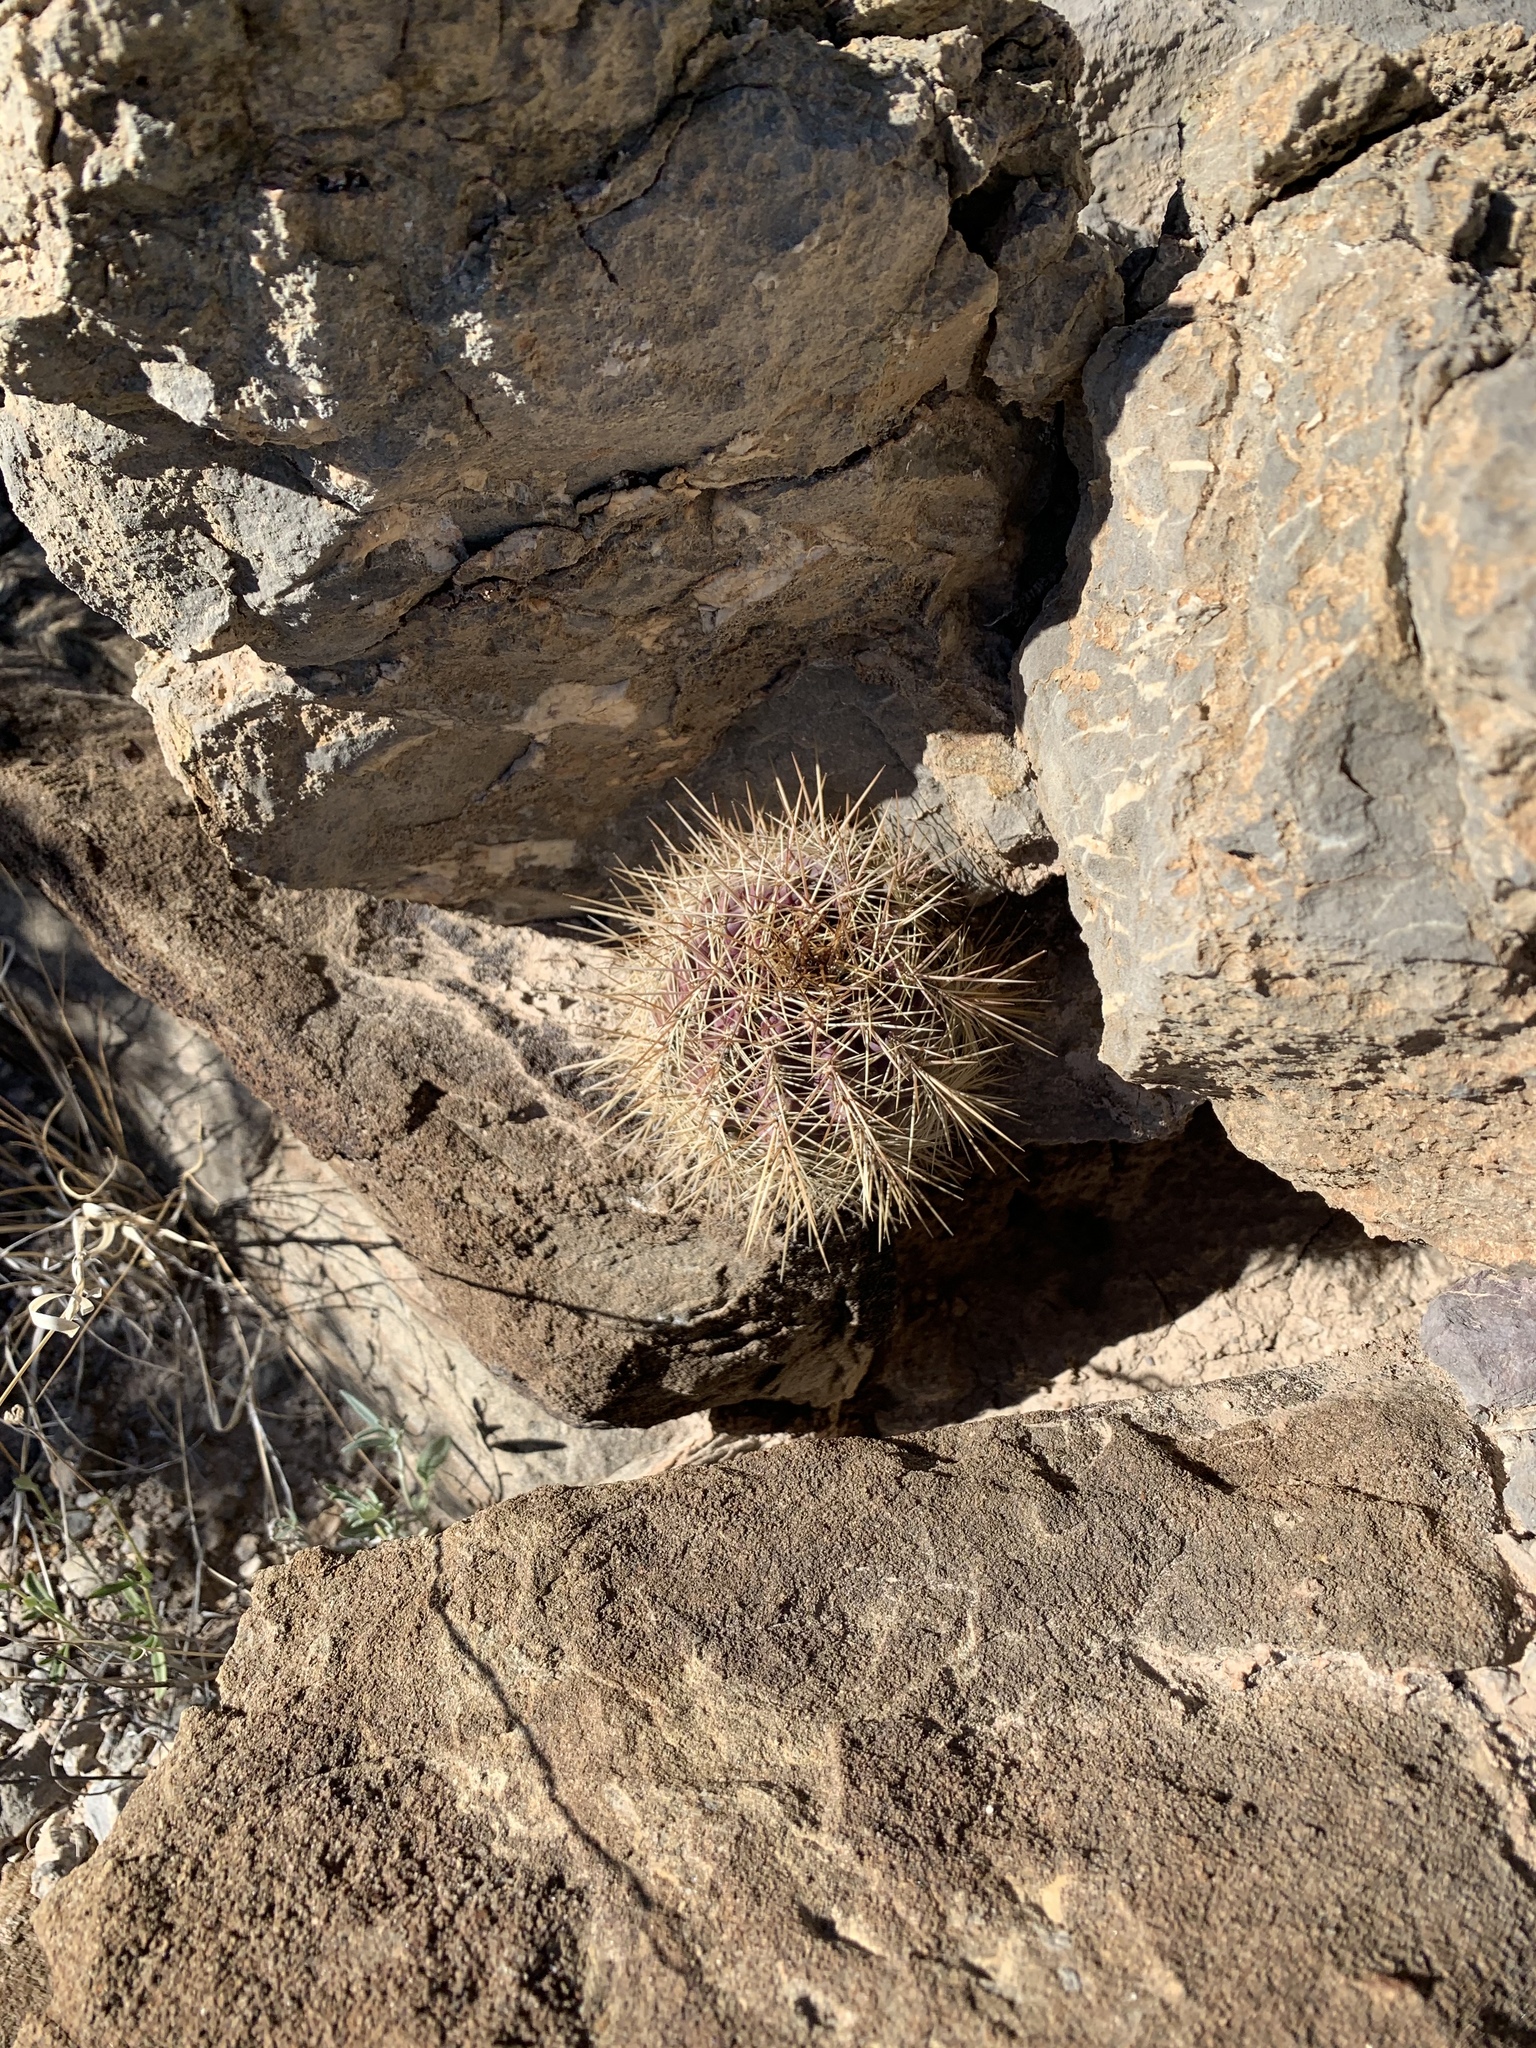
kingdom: Plantae
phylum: Tracheophyta
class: Magnoliopsida
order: Caryophyllales
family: Cactaceae
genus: Echinocereus
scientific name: Echinocereus coccineus
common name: Scarlet hedgehog cactus
